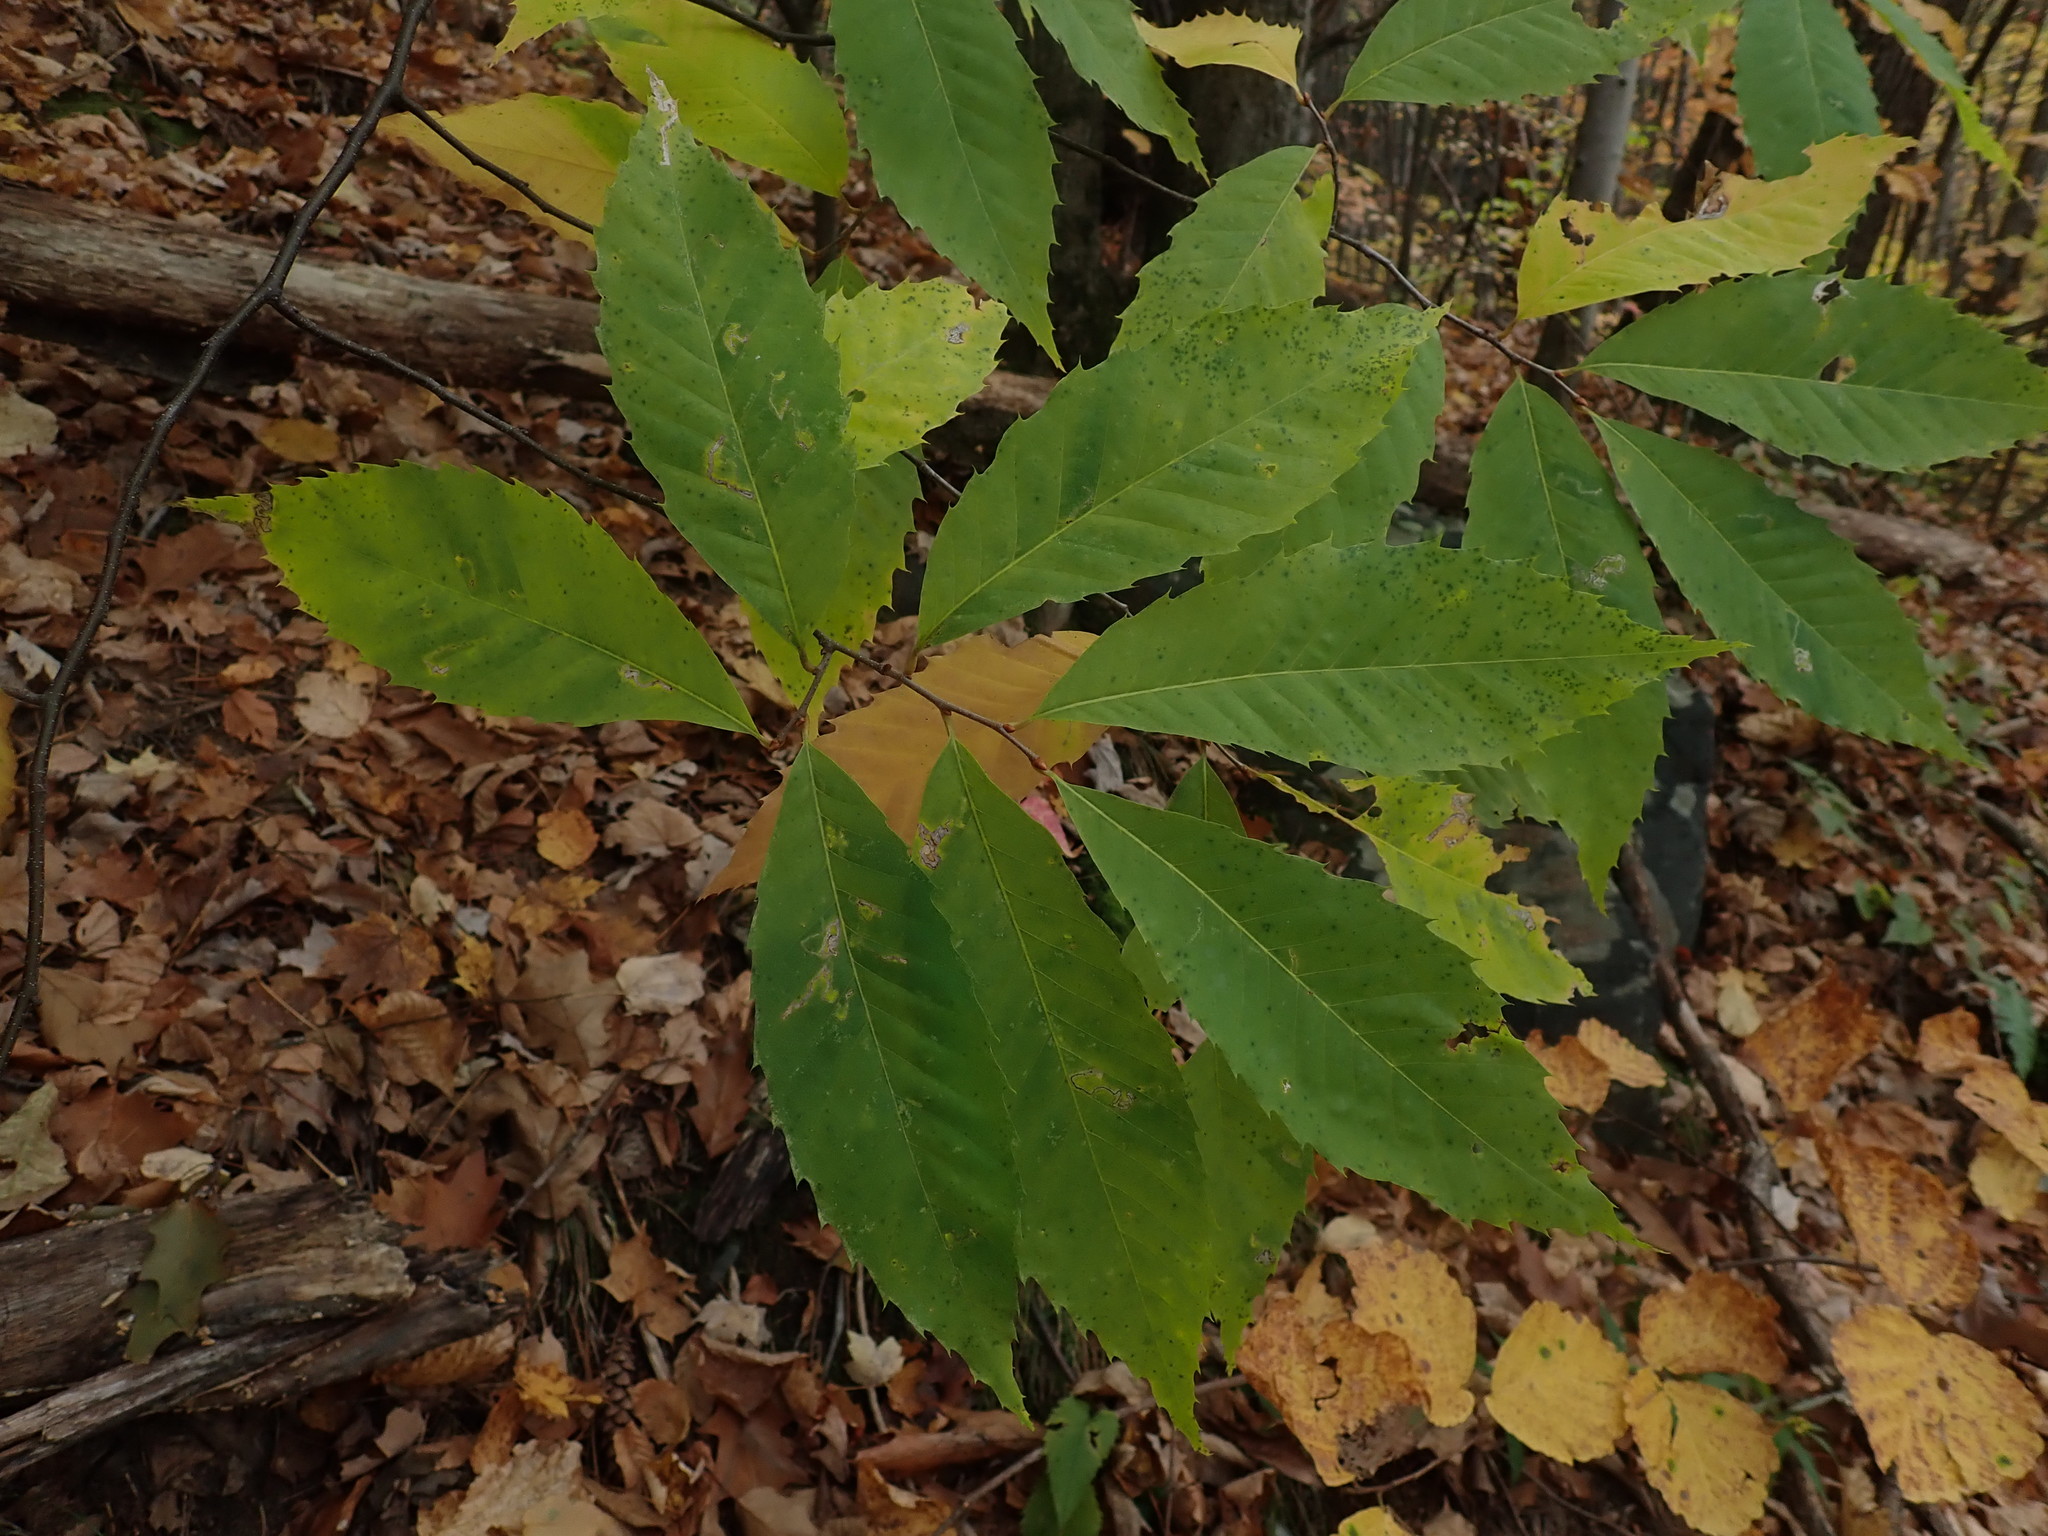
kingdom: Plantae
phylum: Tracheophyta
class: Magnoliopsida
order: Fagales
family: Fagaceae
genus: Castanea
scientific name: Castanea dentata
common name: American chestnut
